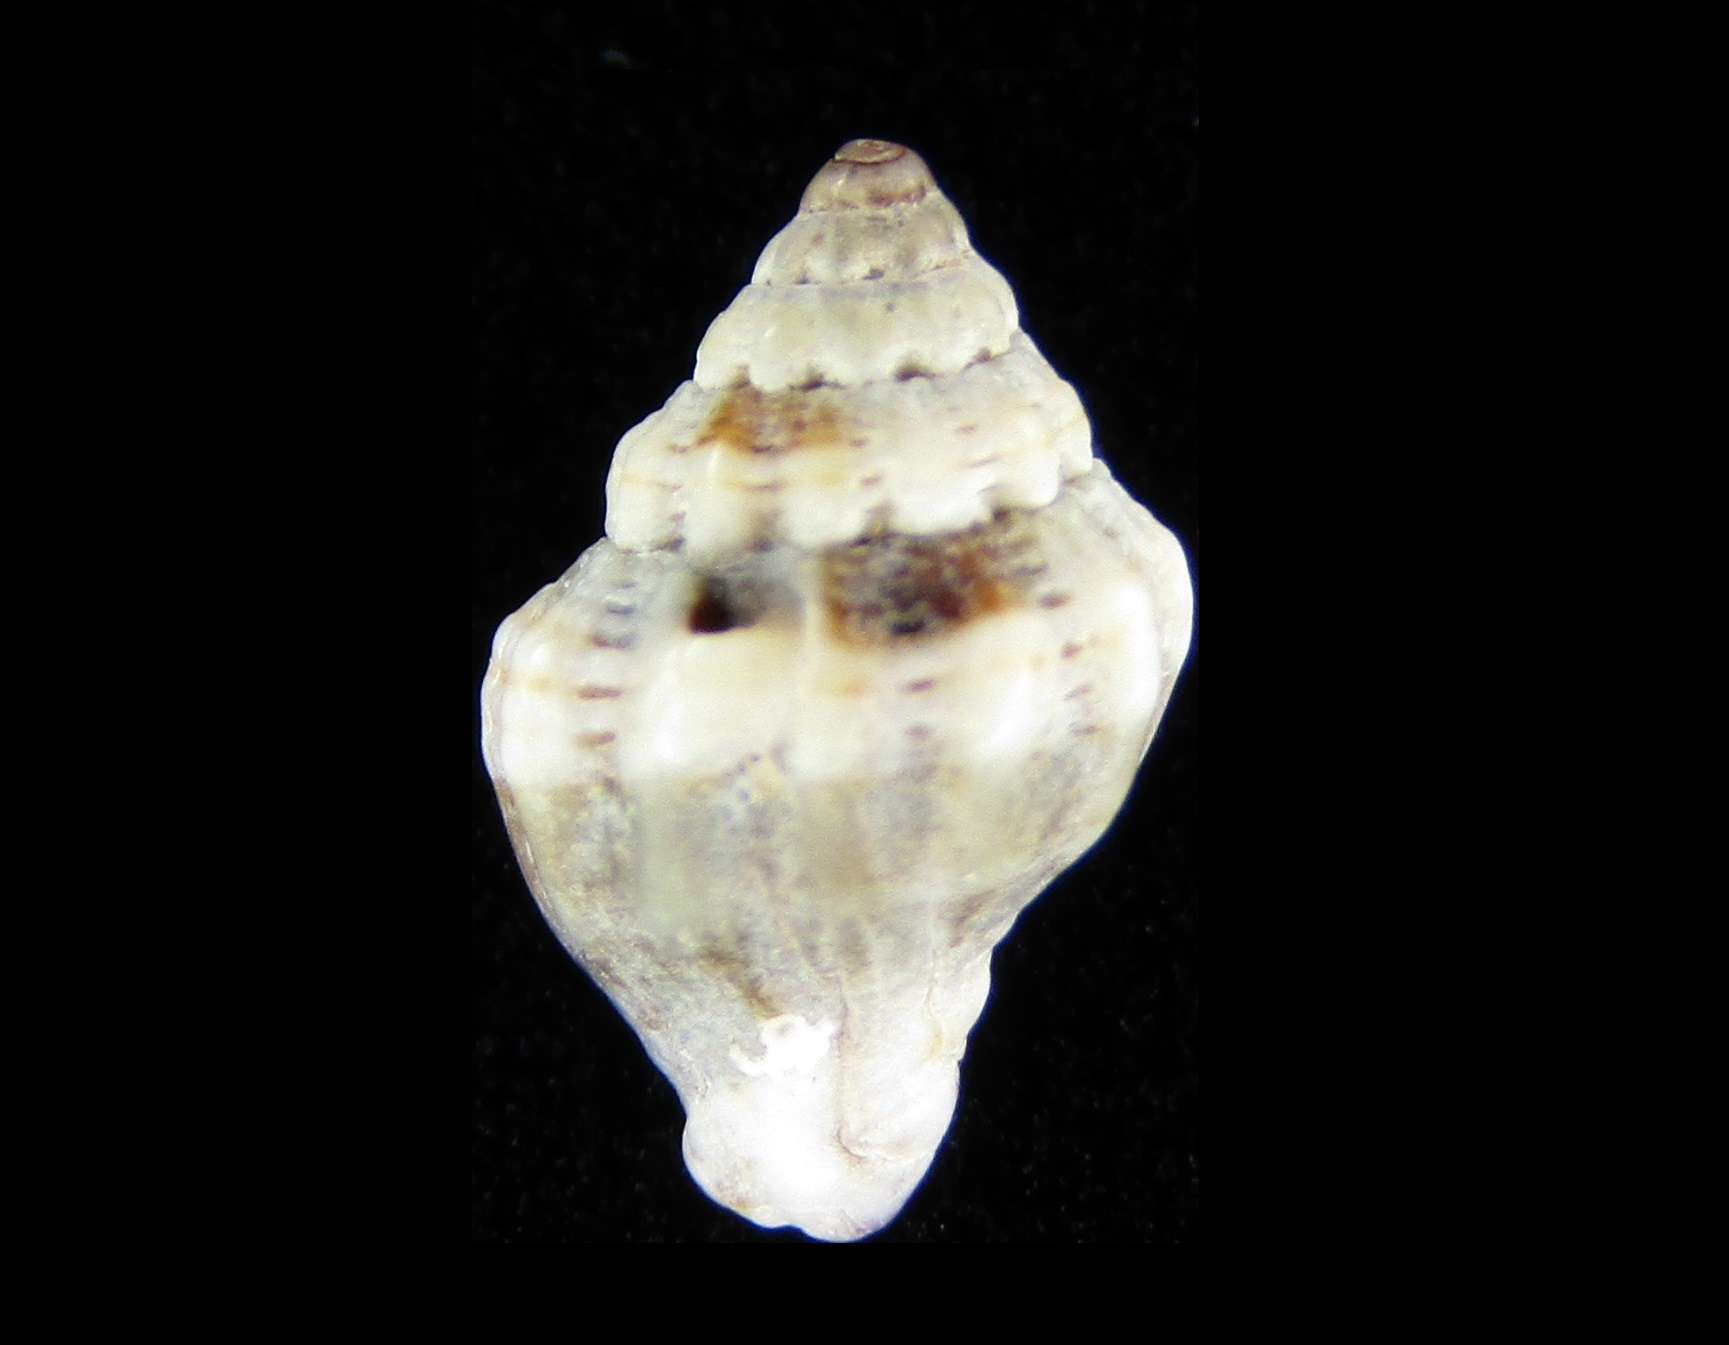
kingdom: Animalia
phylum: Mollusca
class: Gastropoda
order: Neogastropoda
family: Costellariidae
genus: Vexillum
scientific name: Vexillum crispum
